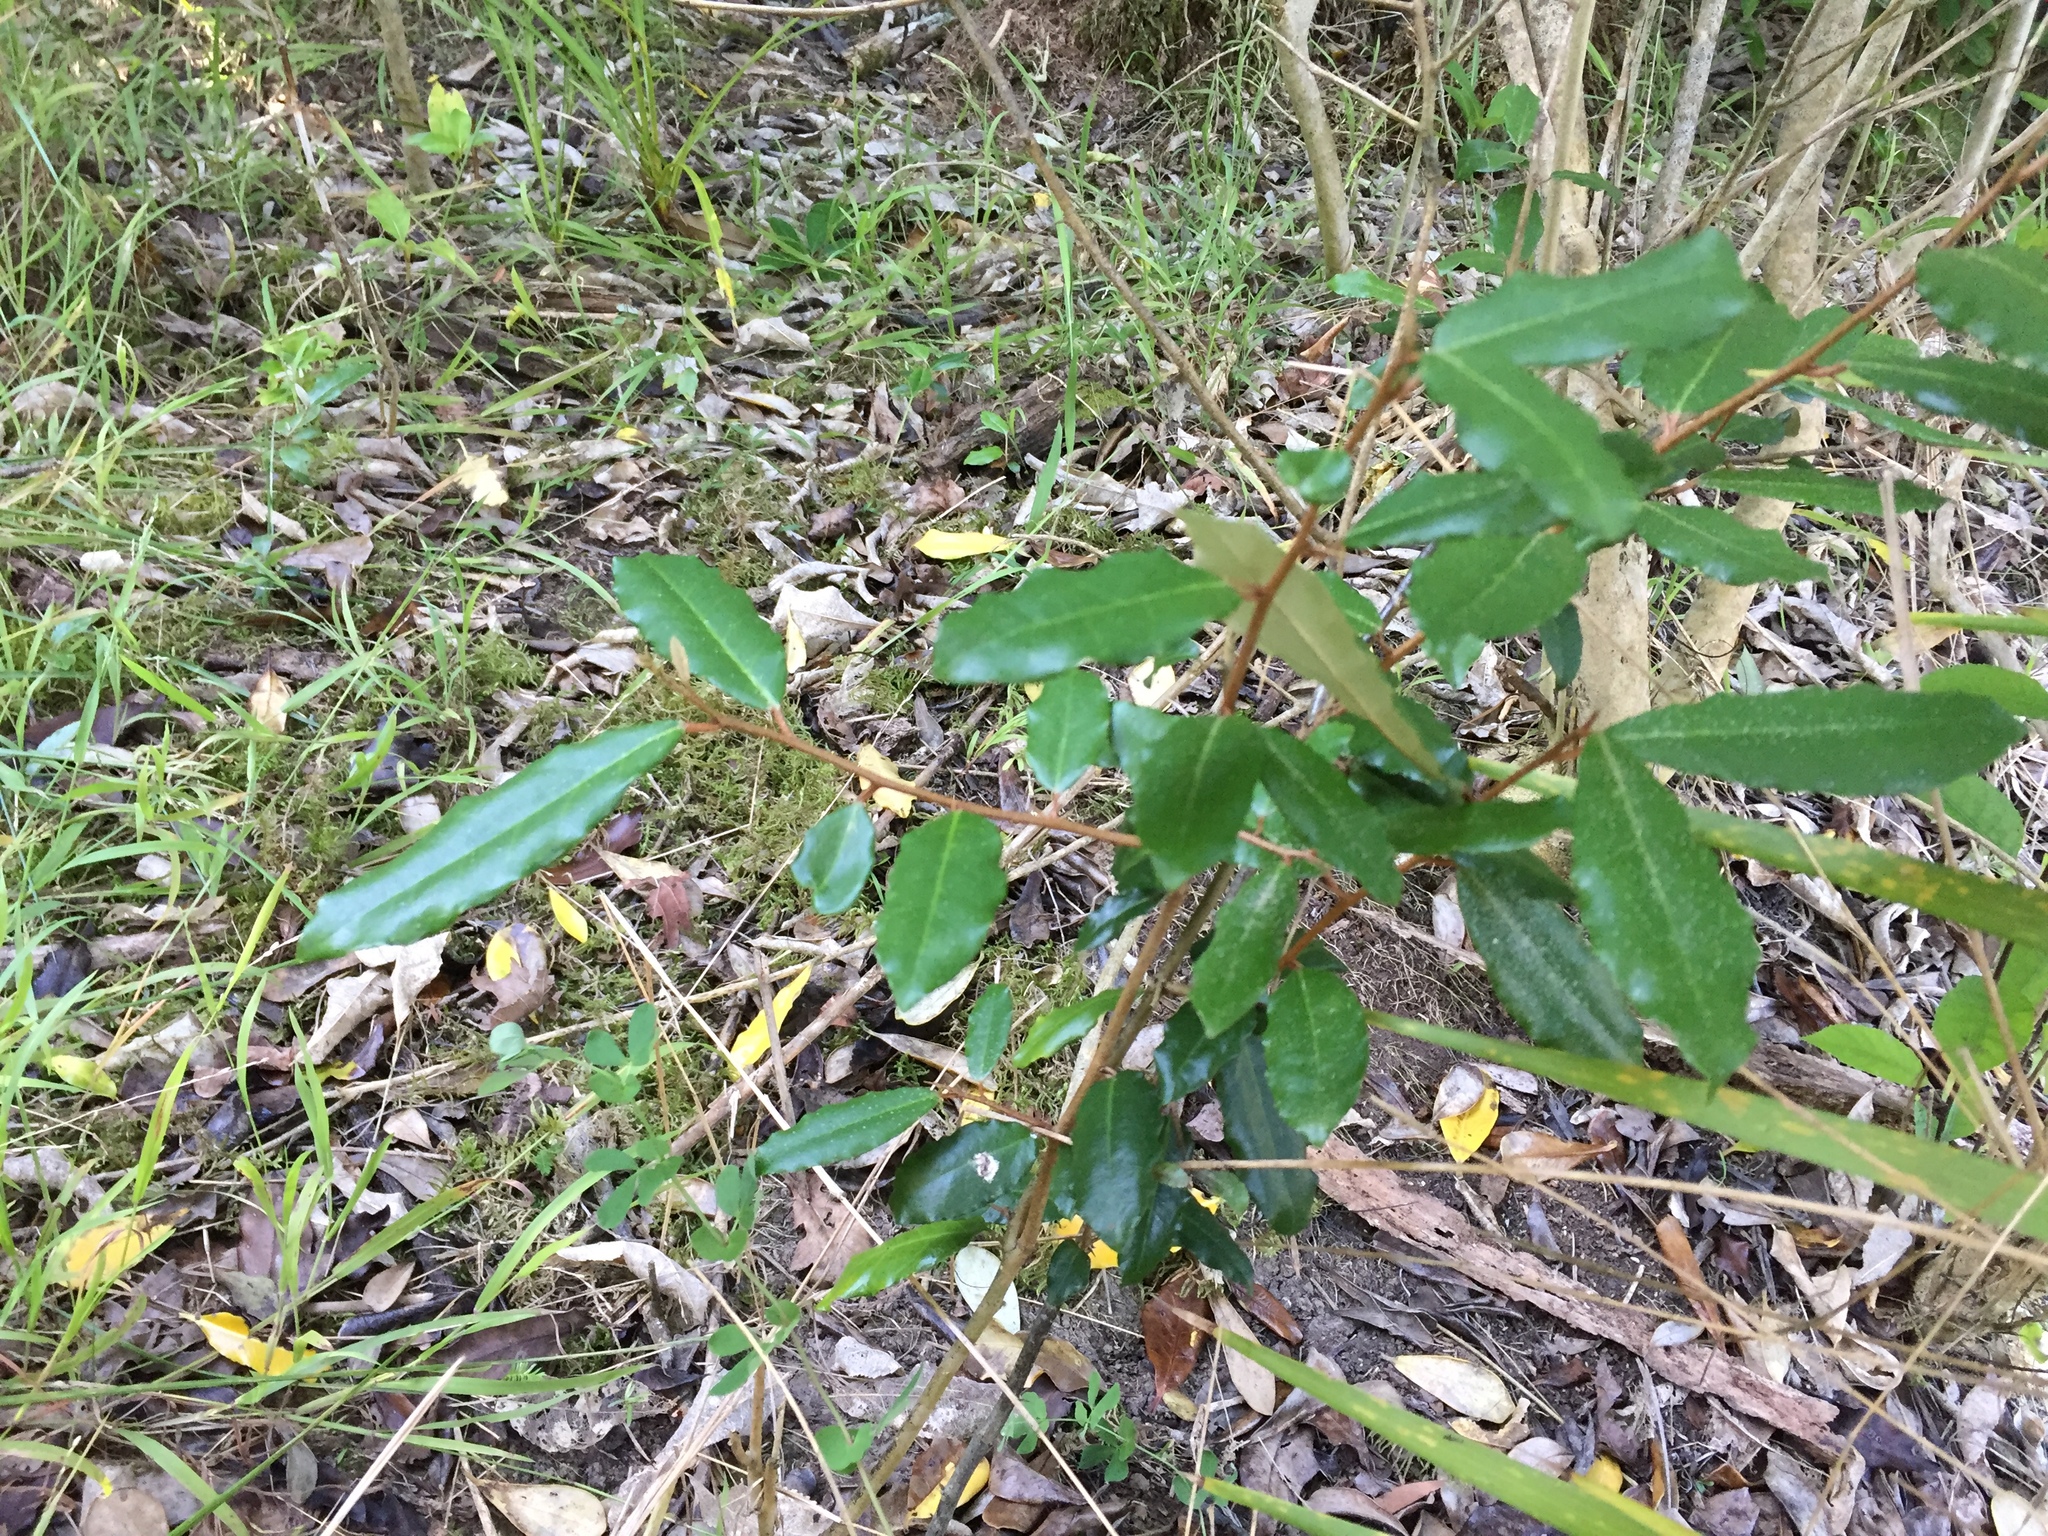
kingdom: Plantae
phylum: Tracheophyta
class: Magnoliopsida
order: Rosales
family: Elaeagnaceae
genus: Elaeagnus
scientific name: Elaeagnus reflexa
